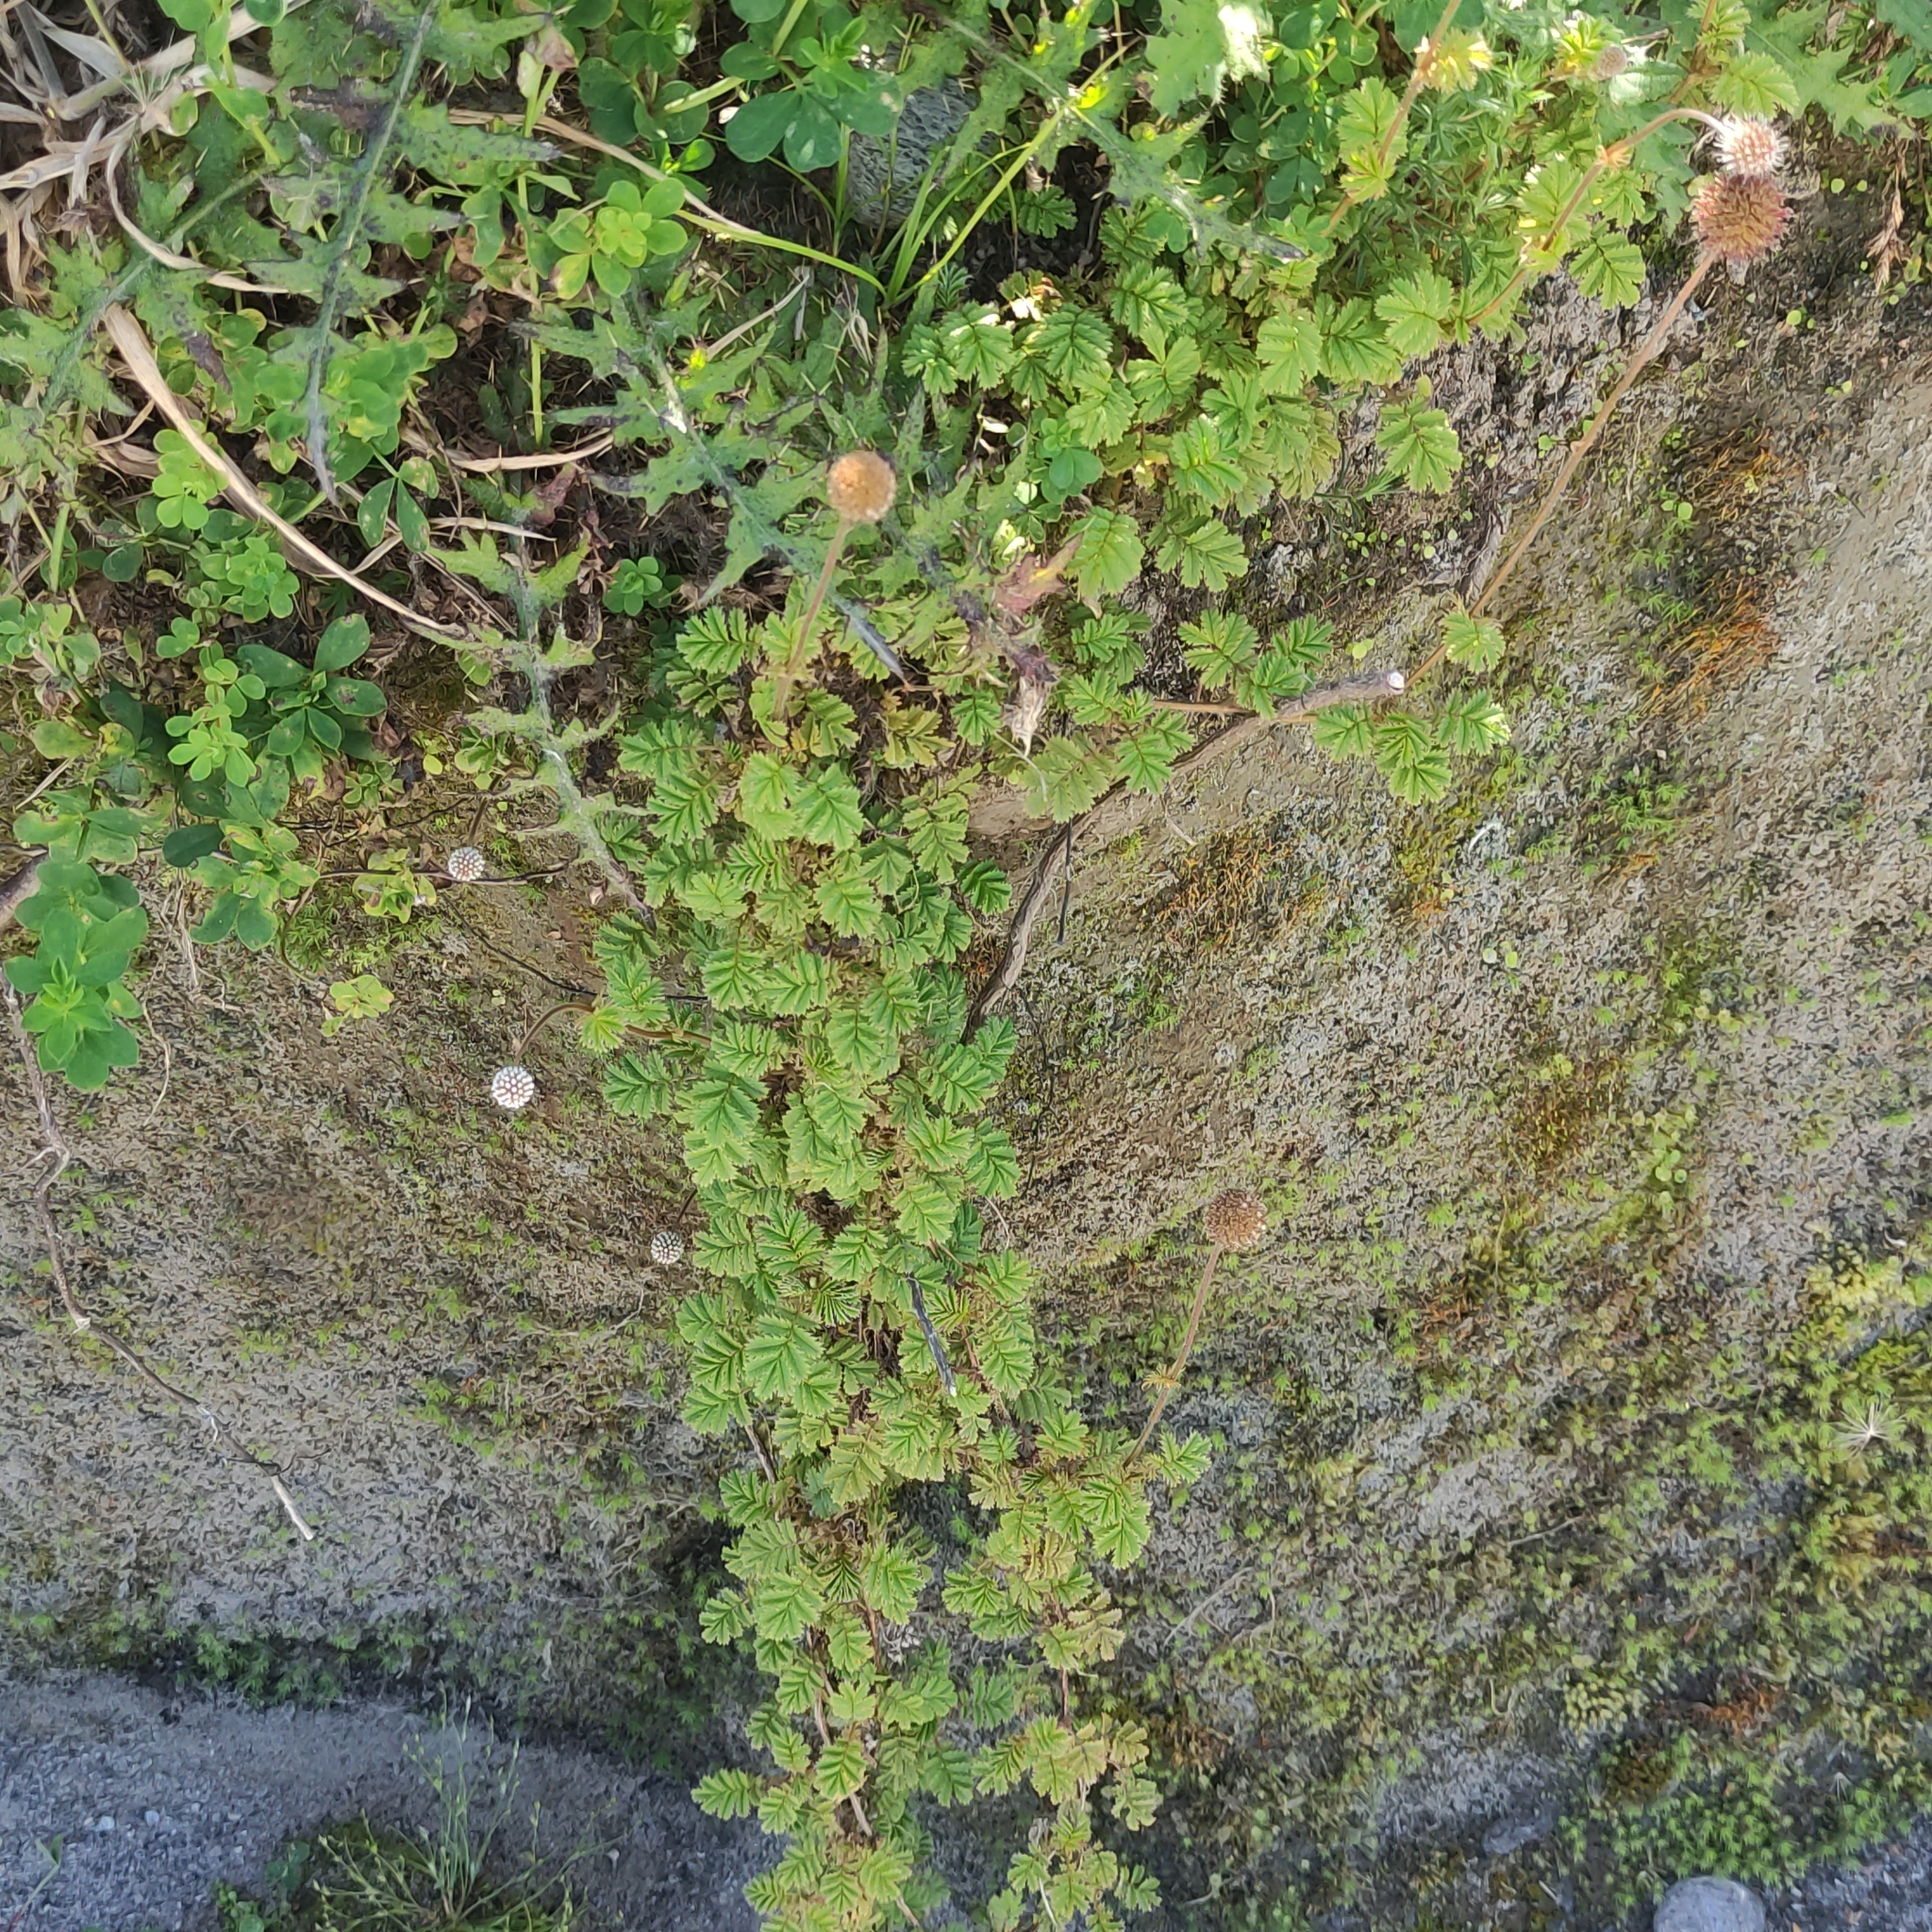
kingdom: Plantae
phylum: Tracheophyta
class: Magnoliopsida
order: Rosales
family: Rosaceae
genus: Acaena
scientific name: Acaena anserinifolia
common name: Bronze pirri-pirri-bur
